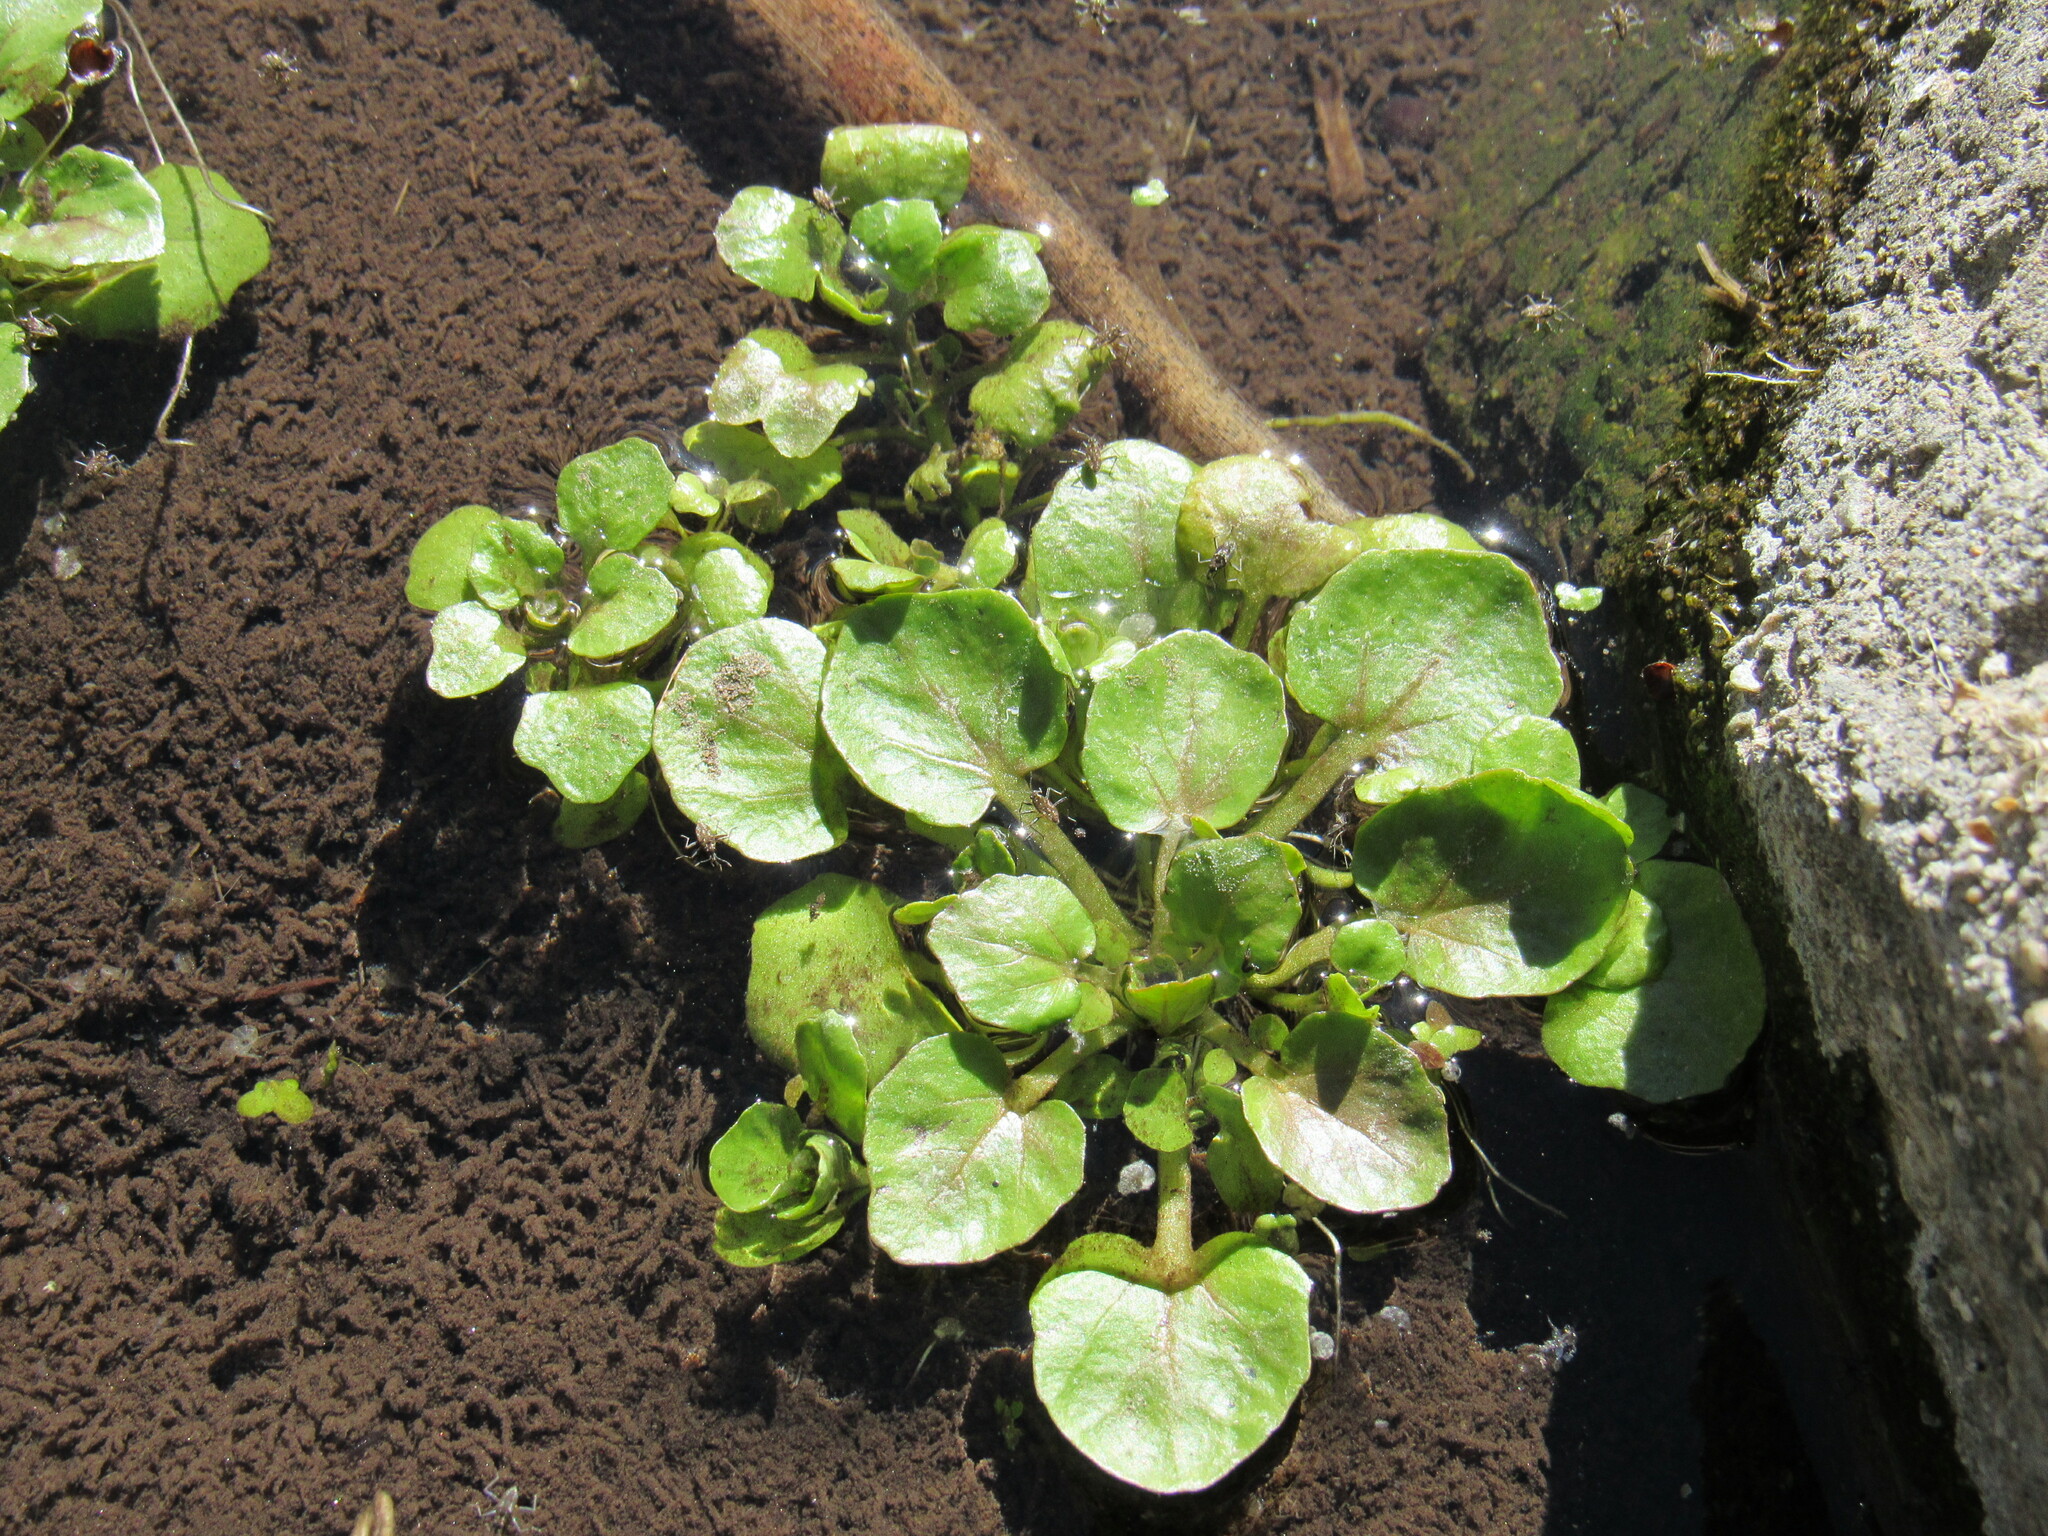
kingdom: Plantae
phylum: Tracheophyta
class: Magnoliopsida
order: Brassicales
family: Brassicaceae
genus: Nasturtium
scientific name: Nasturtium officinale
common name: Watercress
